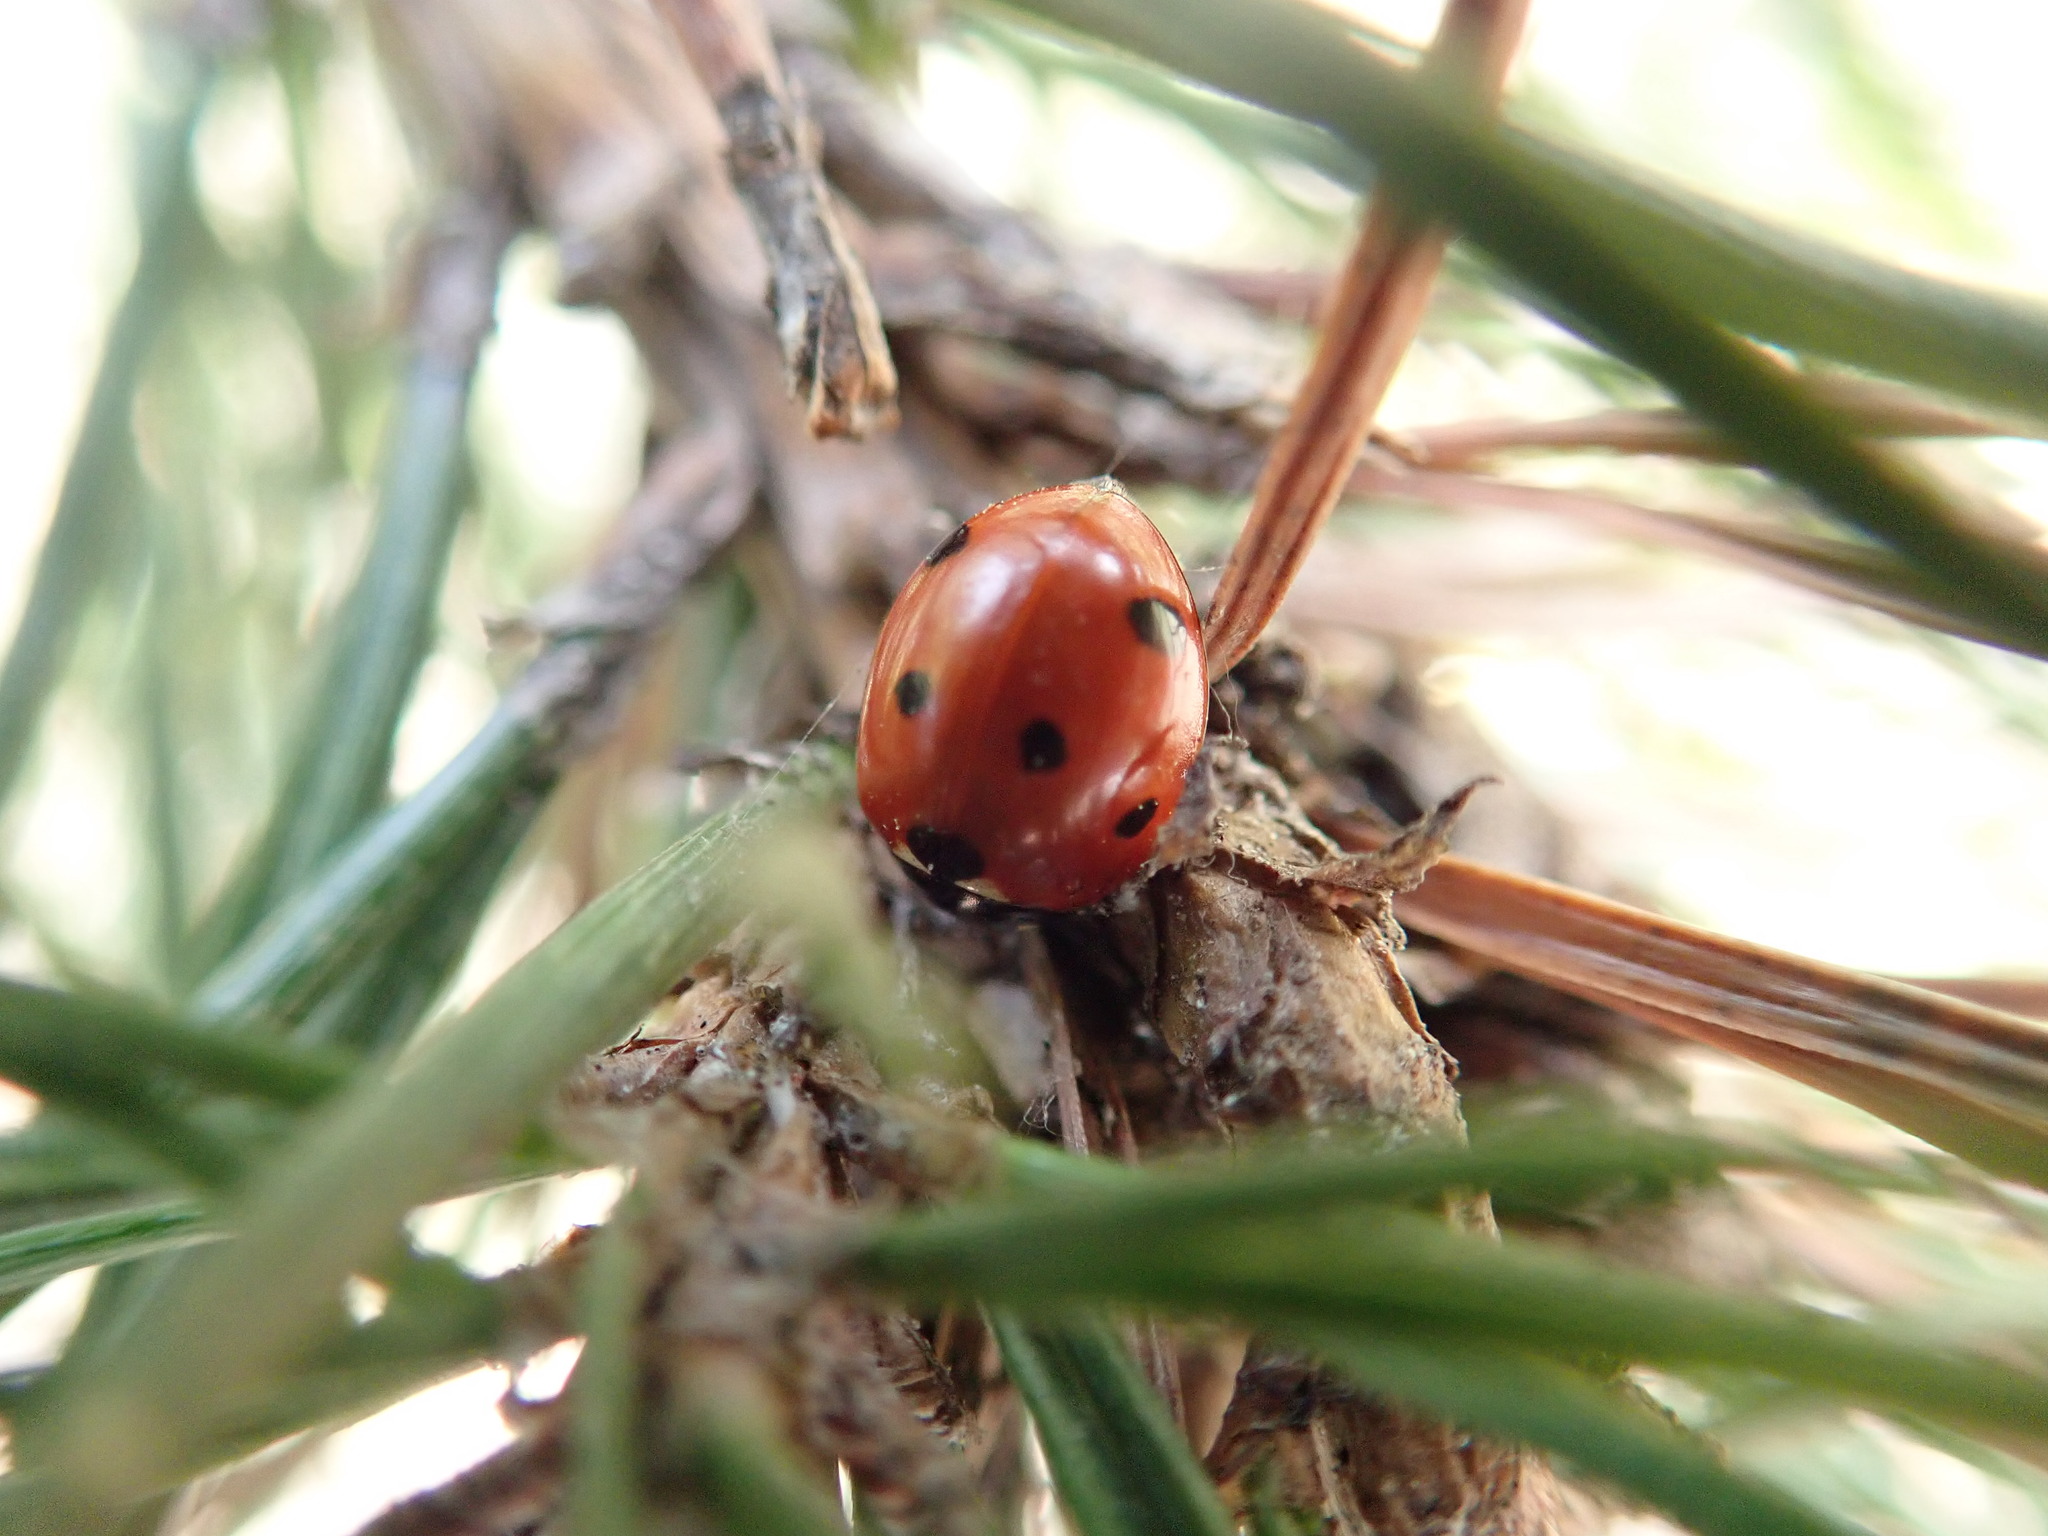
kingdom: Animalia
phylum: Arthropoda
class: Insecta
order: Coleoptera
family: Coccinellidae
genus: Coccinella
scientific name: Coccinella septempunctata
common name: Sevenspotted lady beetle
